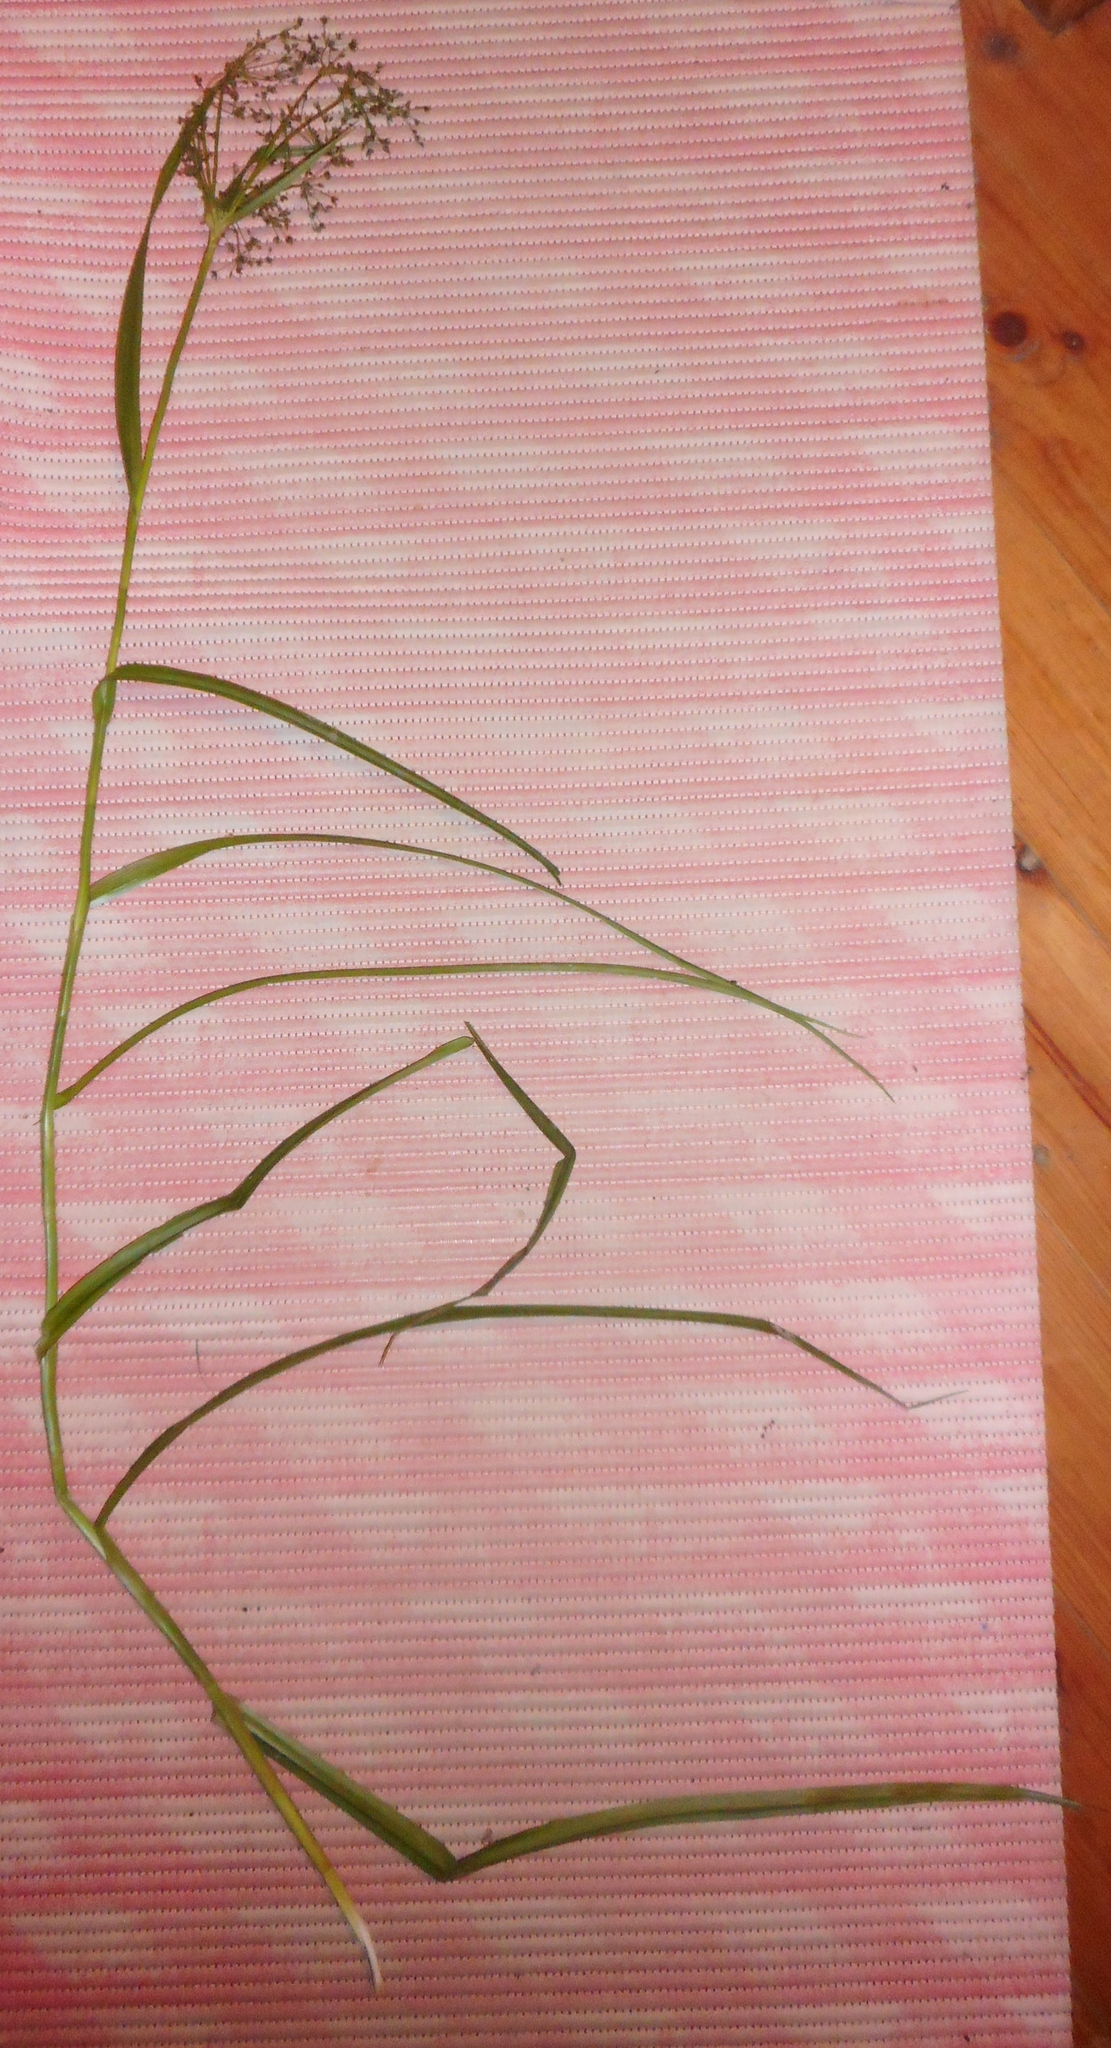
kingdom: Plantae
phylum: Tracheophyta
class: Liliopsida
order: Poales
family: Cyperaceae
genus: Scirpus
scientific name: Scirpus sylvaticus
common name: Wood club-rush
